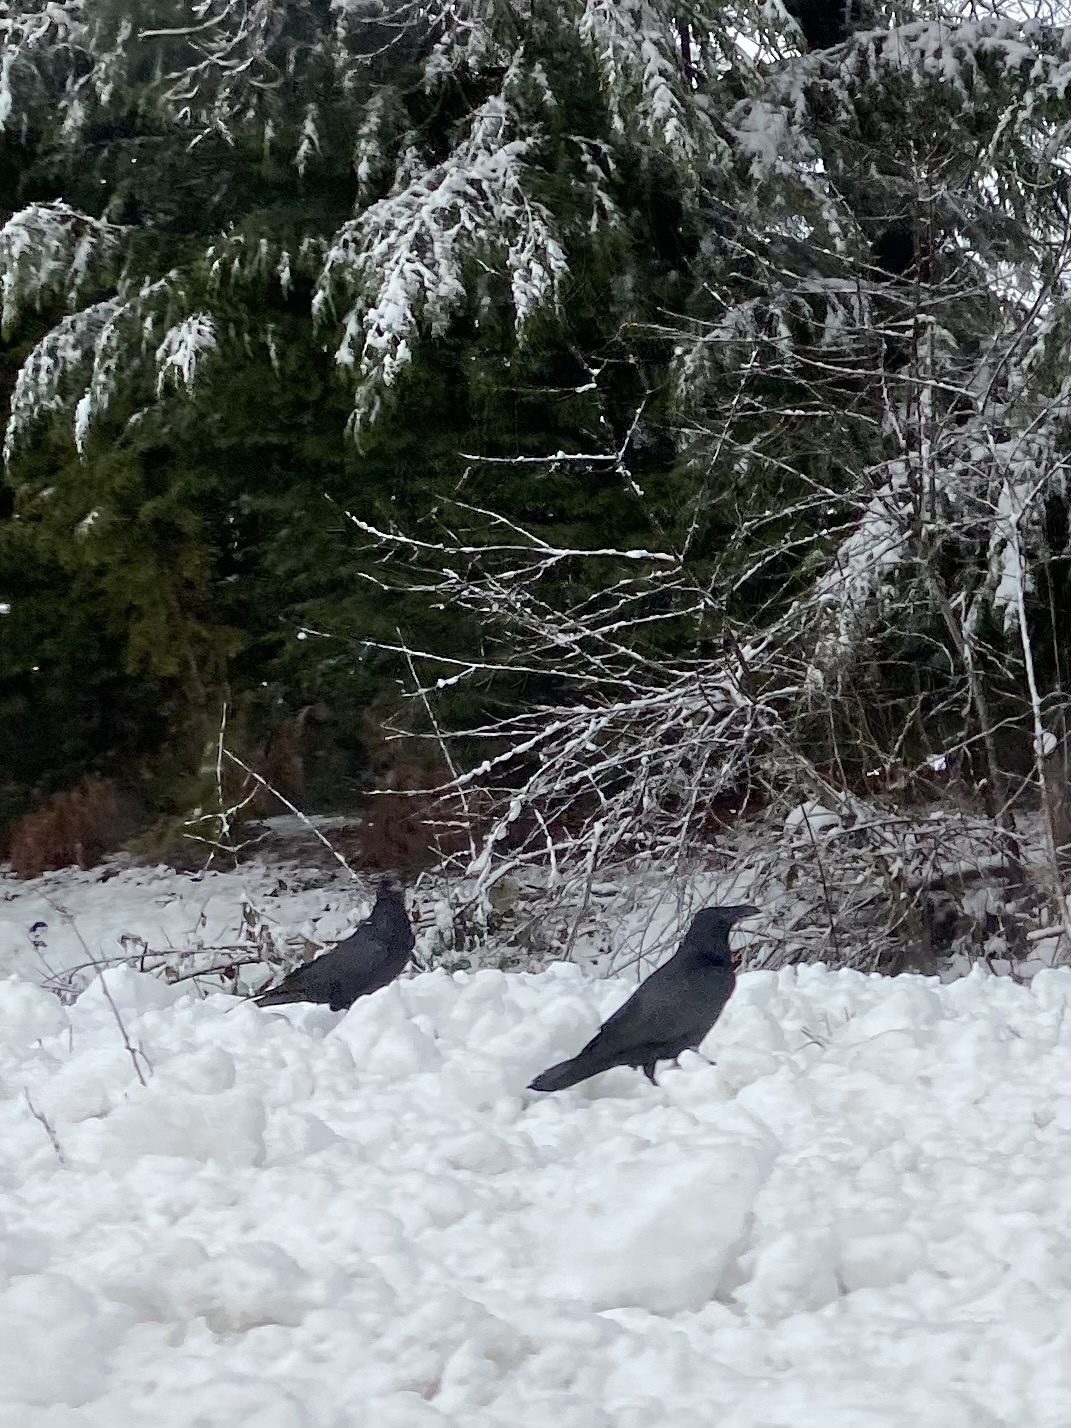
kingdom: Animalia
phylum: Chordata
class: Aves
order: Passeriformes
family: Corvidae
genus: Corvus
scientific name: Corvus corax
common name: Common raven
